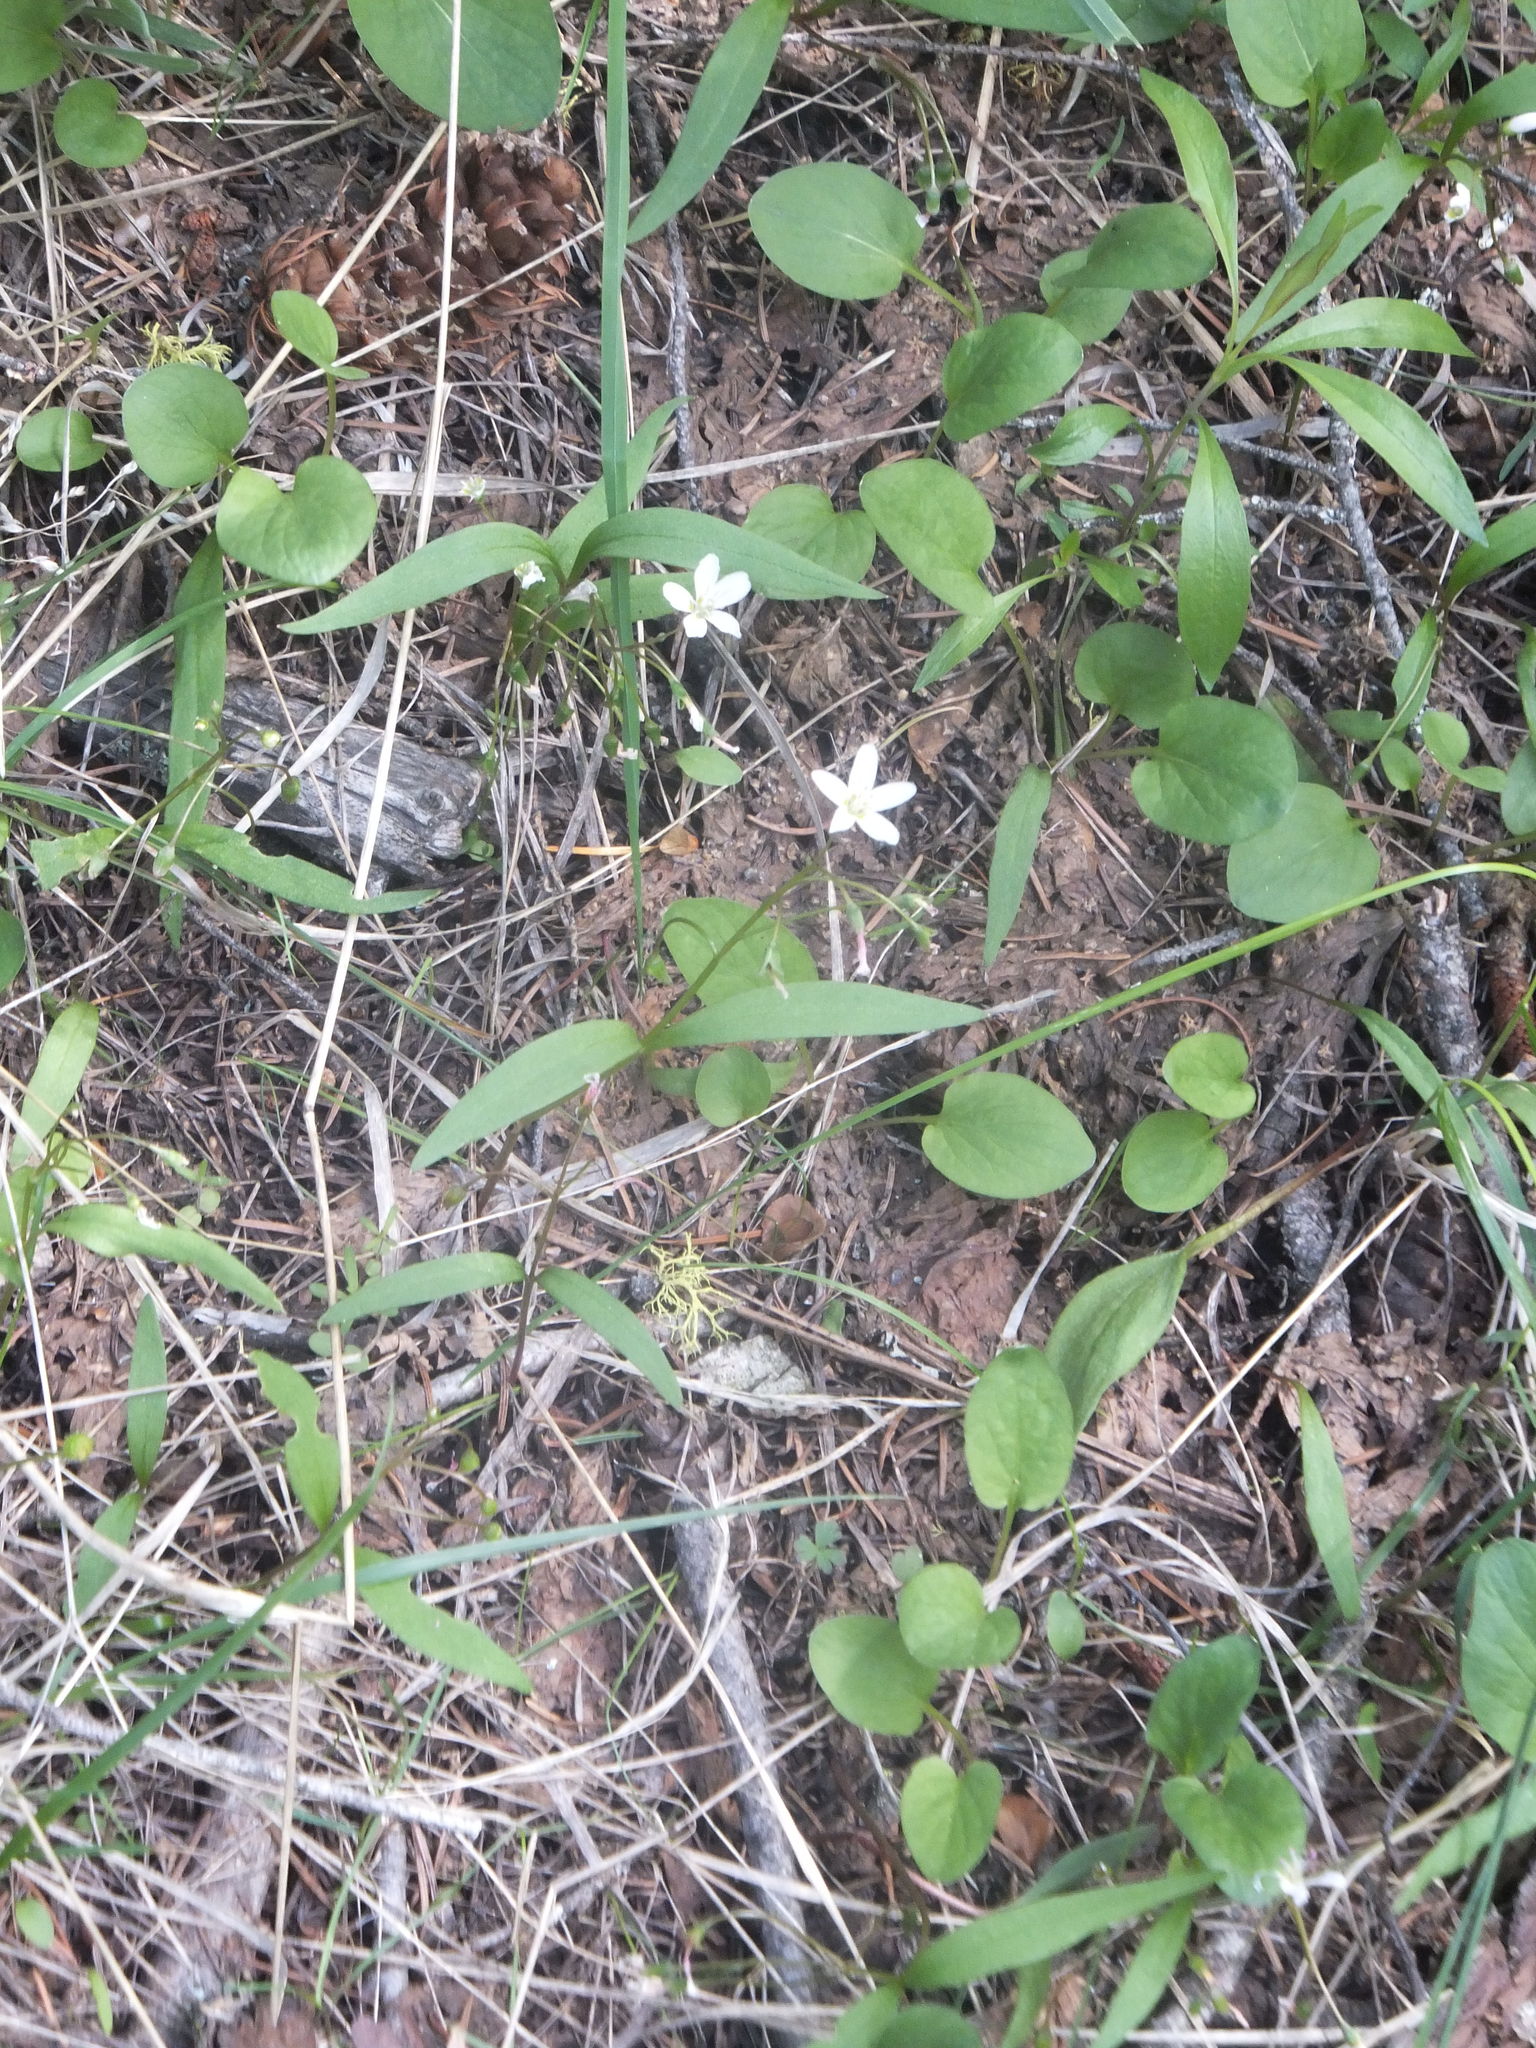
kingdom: Plantae
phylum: Tracheophyta
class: Magnoliopsida
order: Caryophyllales
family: Montiaceae
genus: Claytonia
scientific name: Claytonia lanceolata
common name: Western spring-beauty
